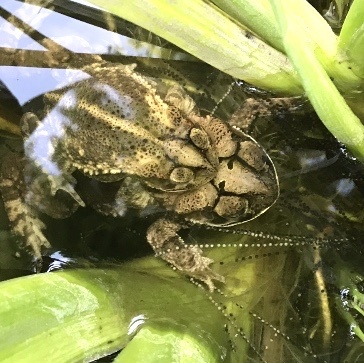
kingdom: Animalia
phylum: Chordata
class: Amphibia
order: Anura
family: Bufonidae
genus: Incilius
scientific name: Incilius nebulifer
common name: Gulf coast toad
